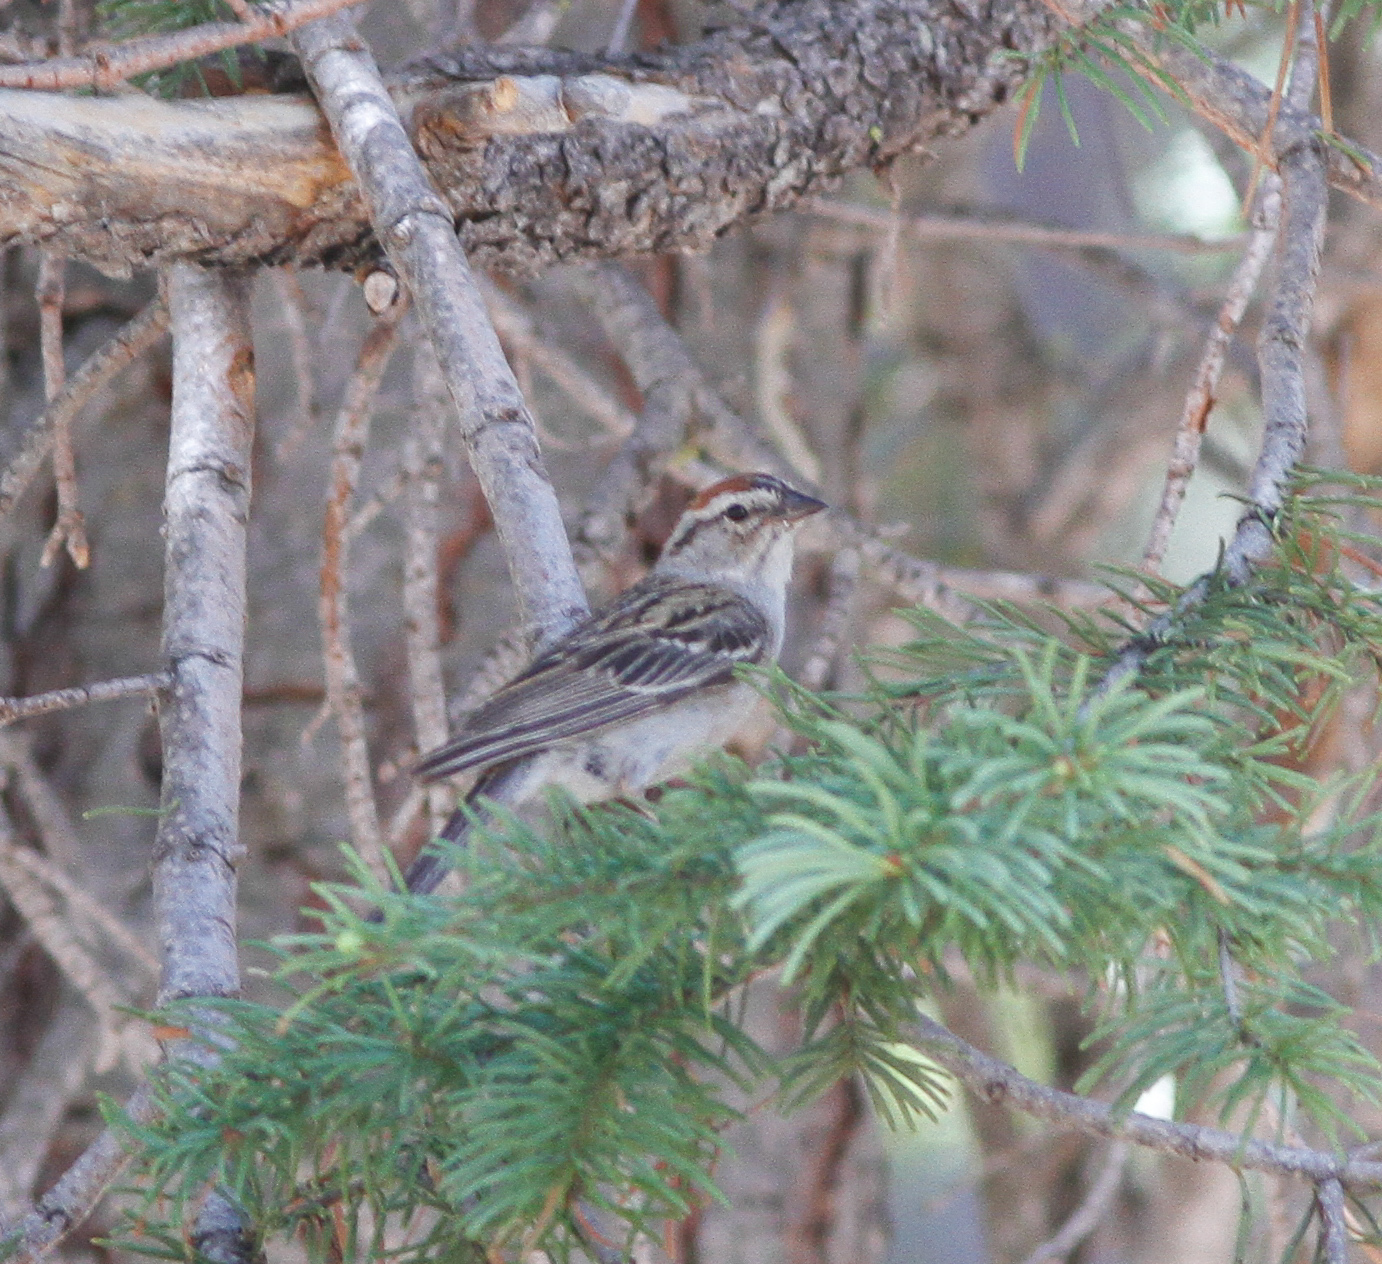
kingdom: Animalia
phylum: Chordata
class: Aves
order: Passeriformes
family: Passerellidae
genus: Spizella
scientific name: Spizella passerina
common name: Chipping sparrow
